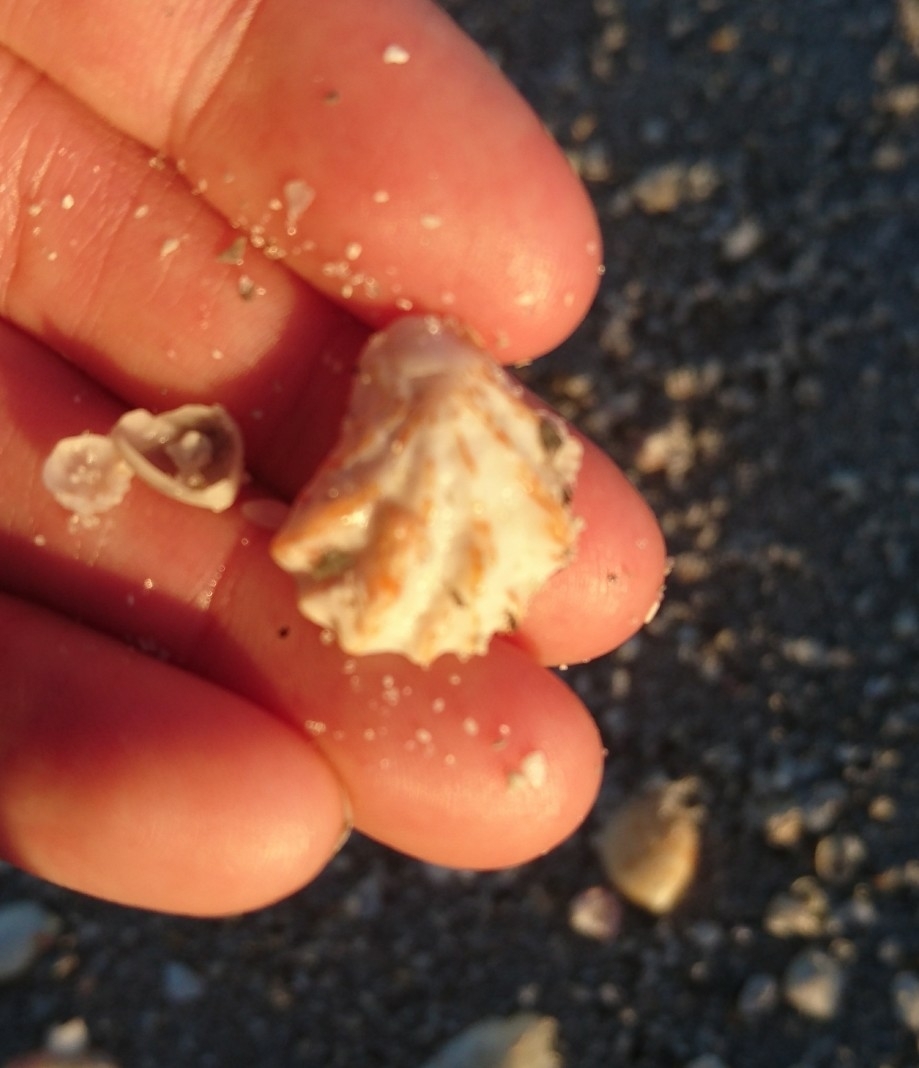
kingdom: Animalia
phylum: Mollusca
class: Bivalvia
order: Pectinida
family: Plicatulidae
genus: Plicatula
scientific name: Plicatula gibbosa
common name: Atlantic kitten's paw
